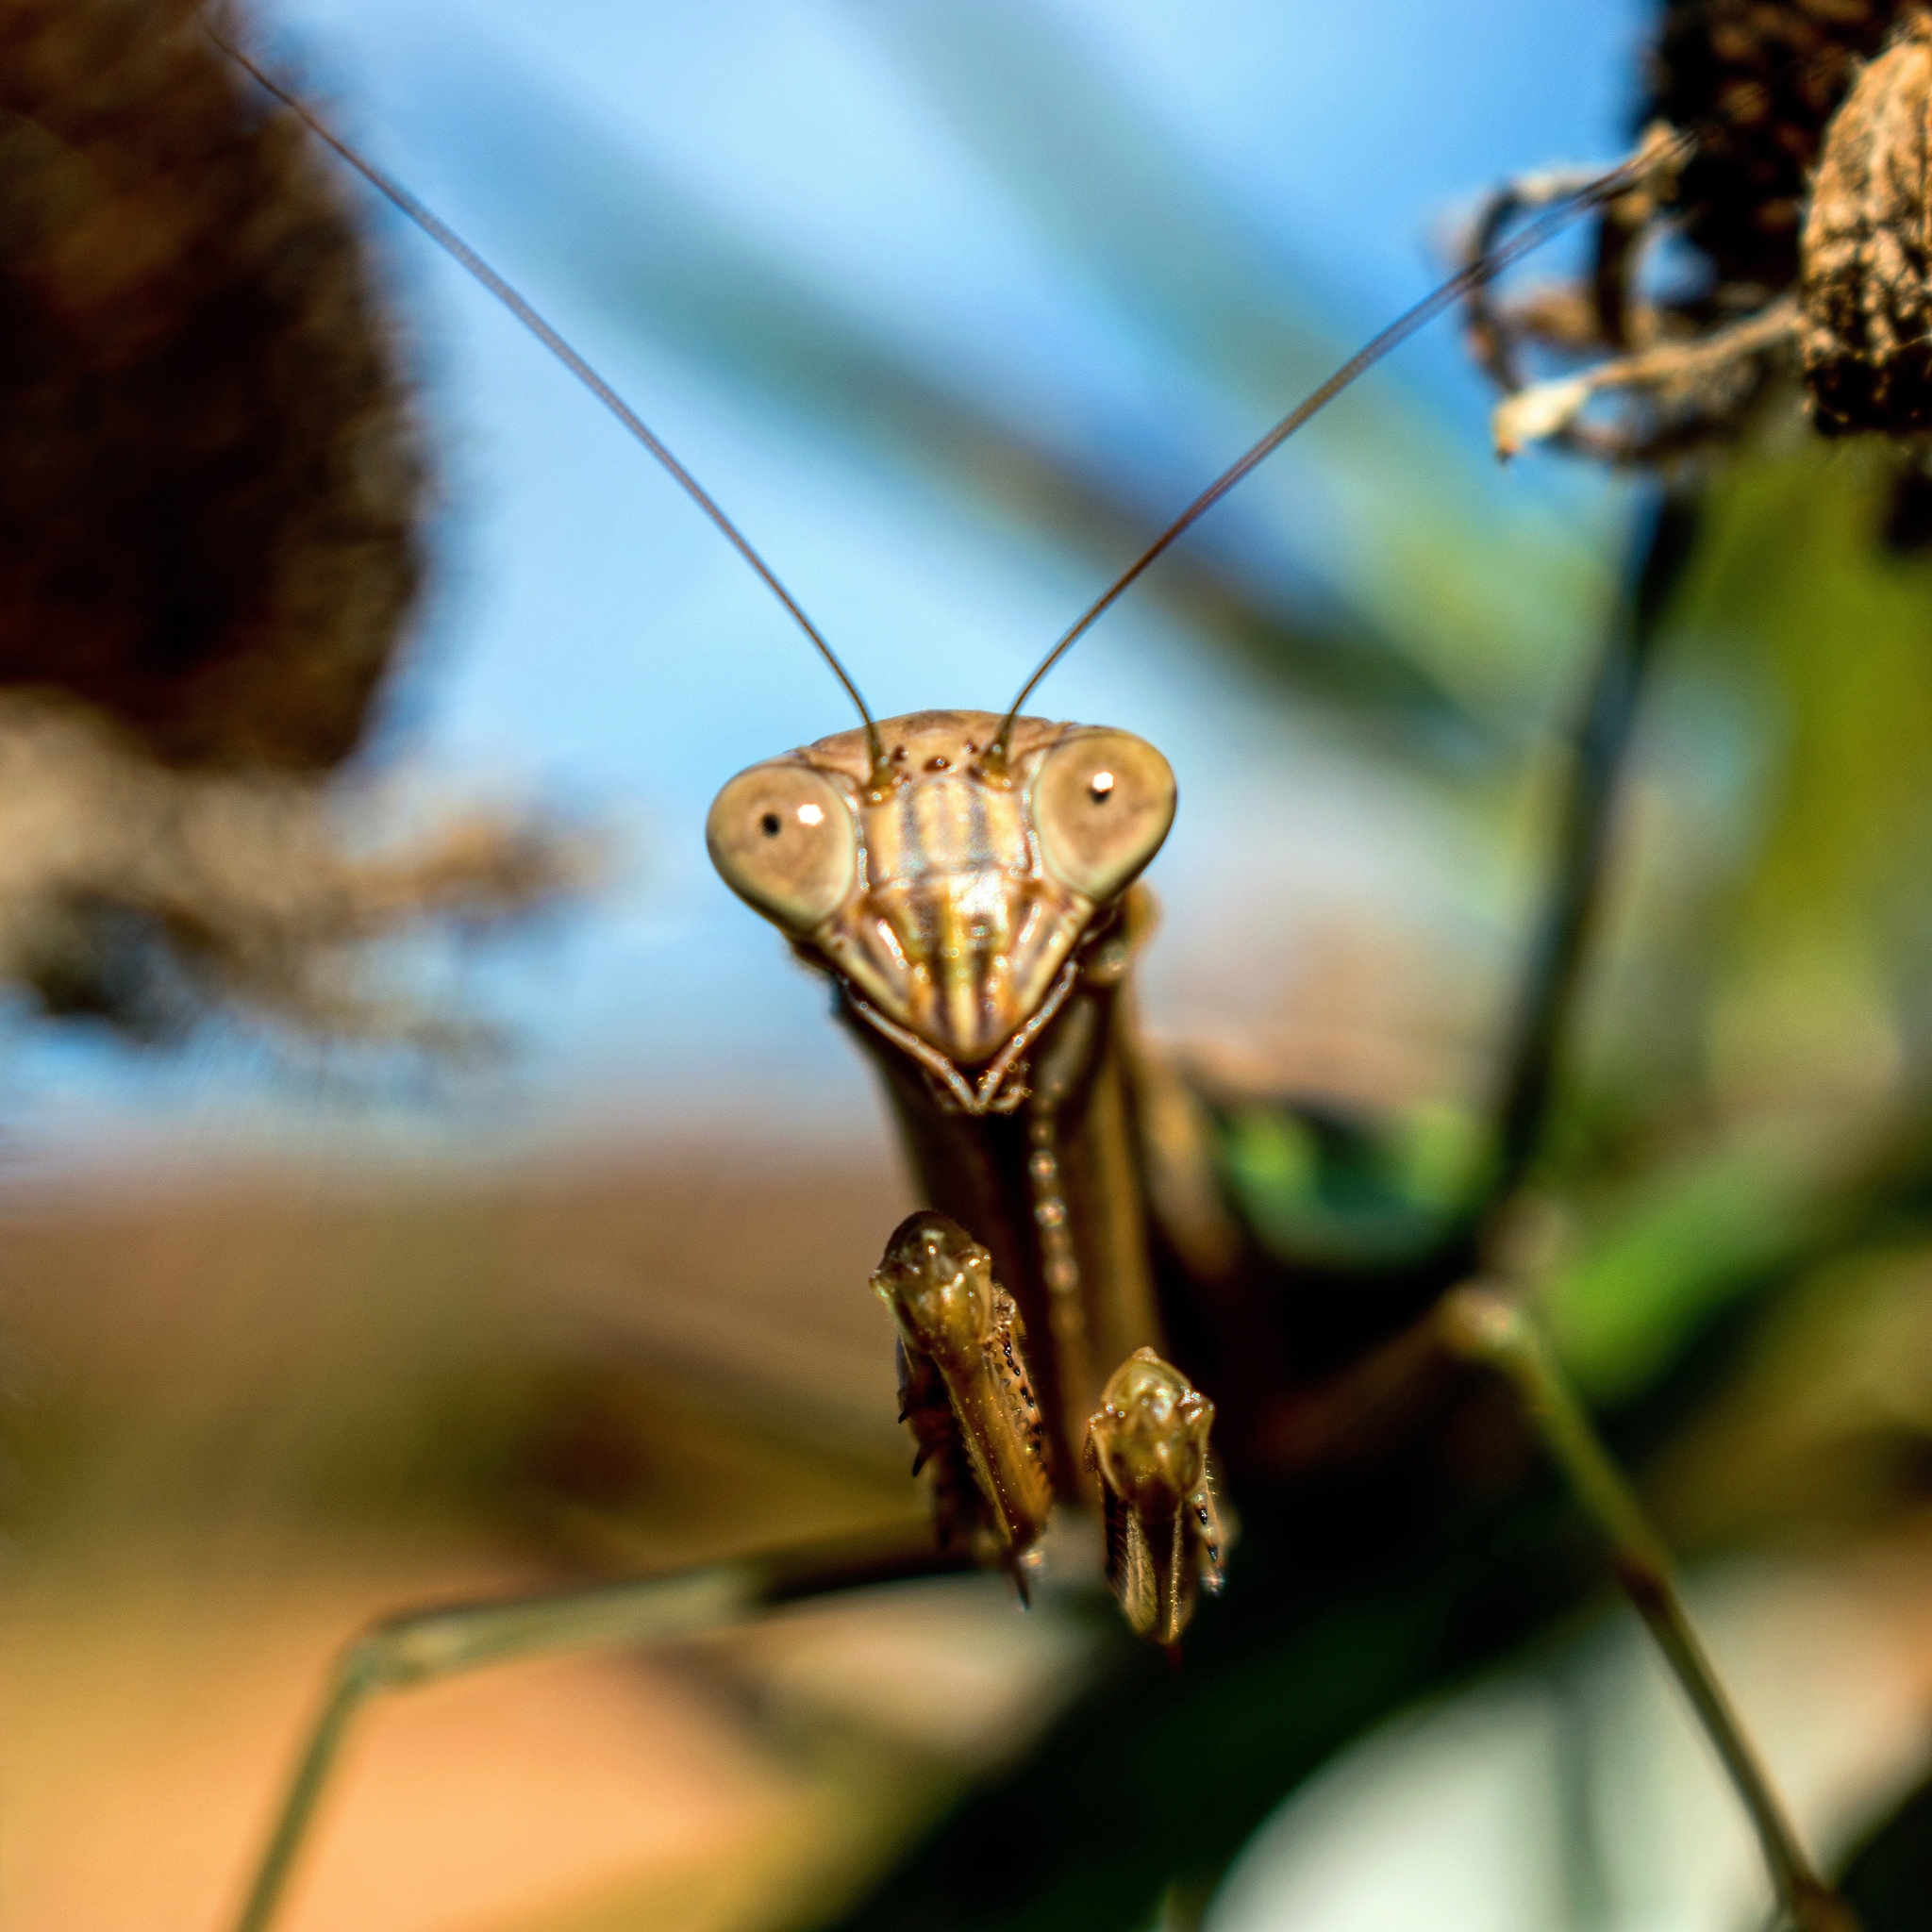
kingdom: Animalia
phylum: Arthropoda
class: Insecta
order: Mantodea
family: Mantidae
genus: Tenodera
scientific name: Tenodera sinensis
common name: Chinese mantis
